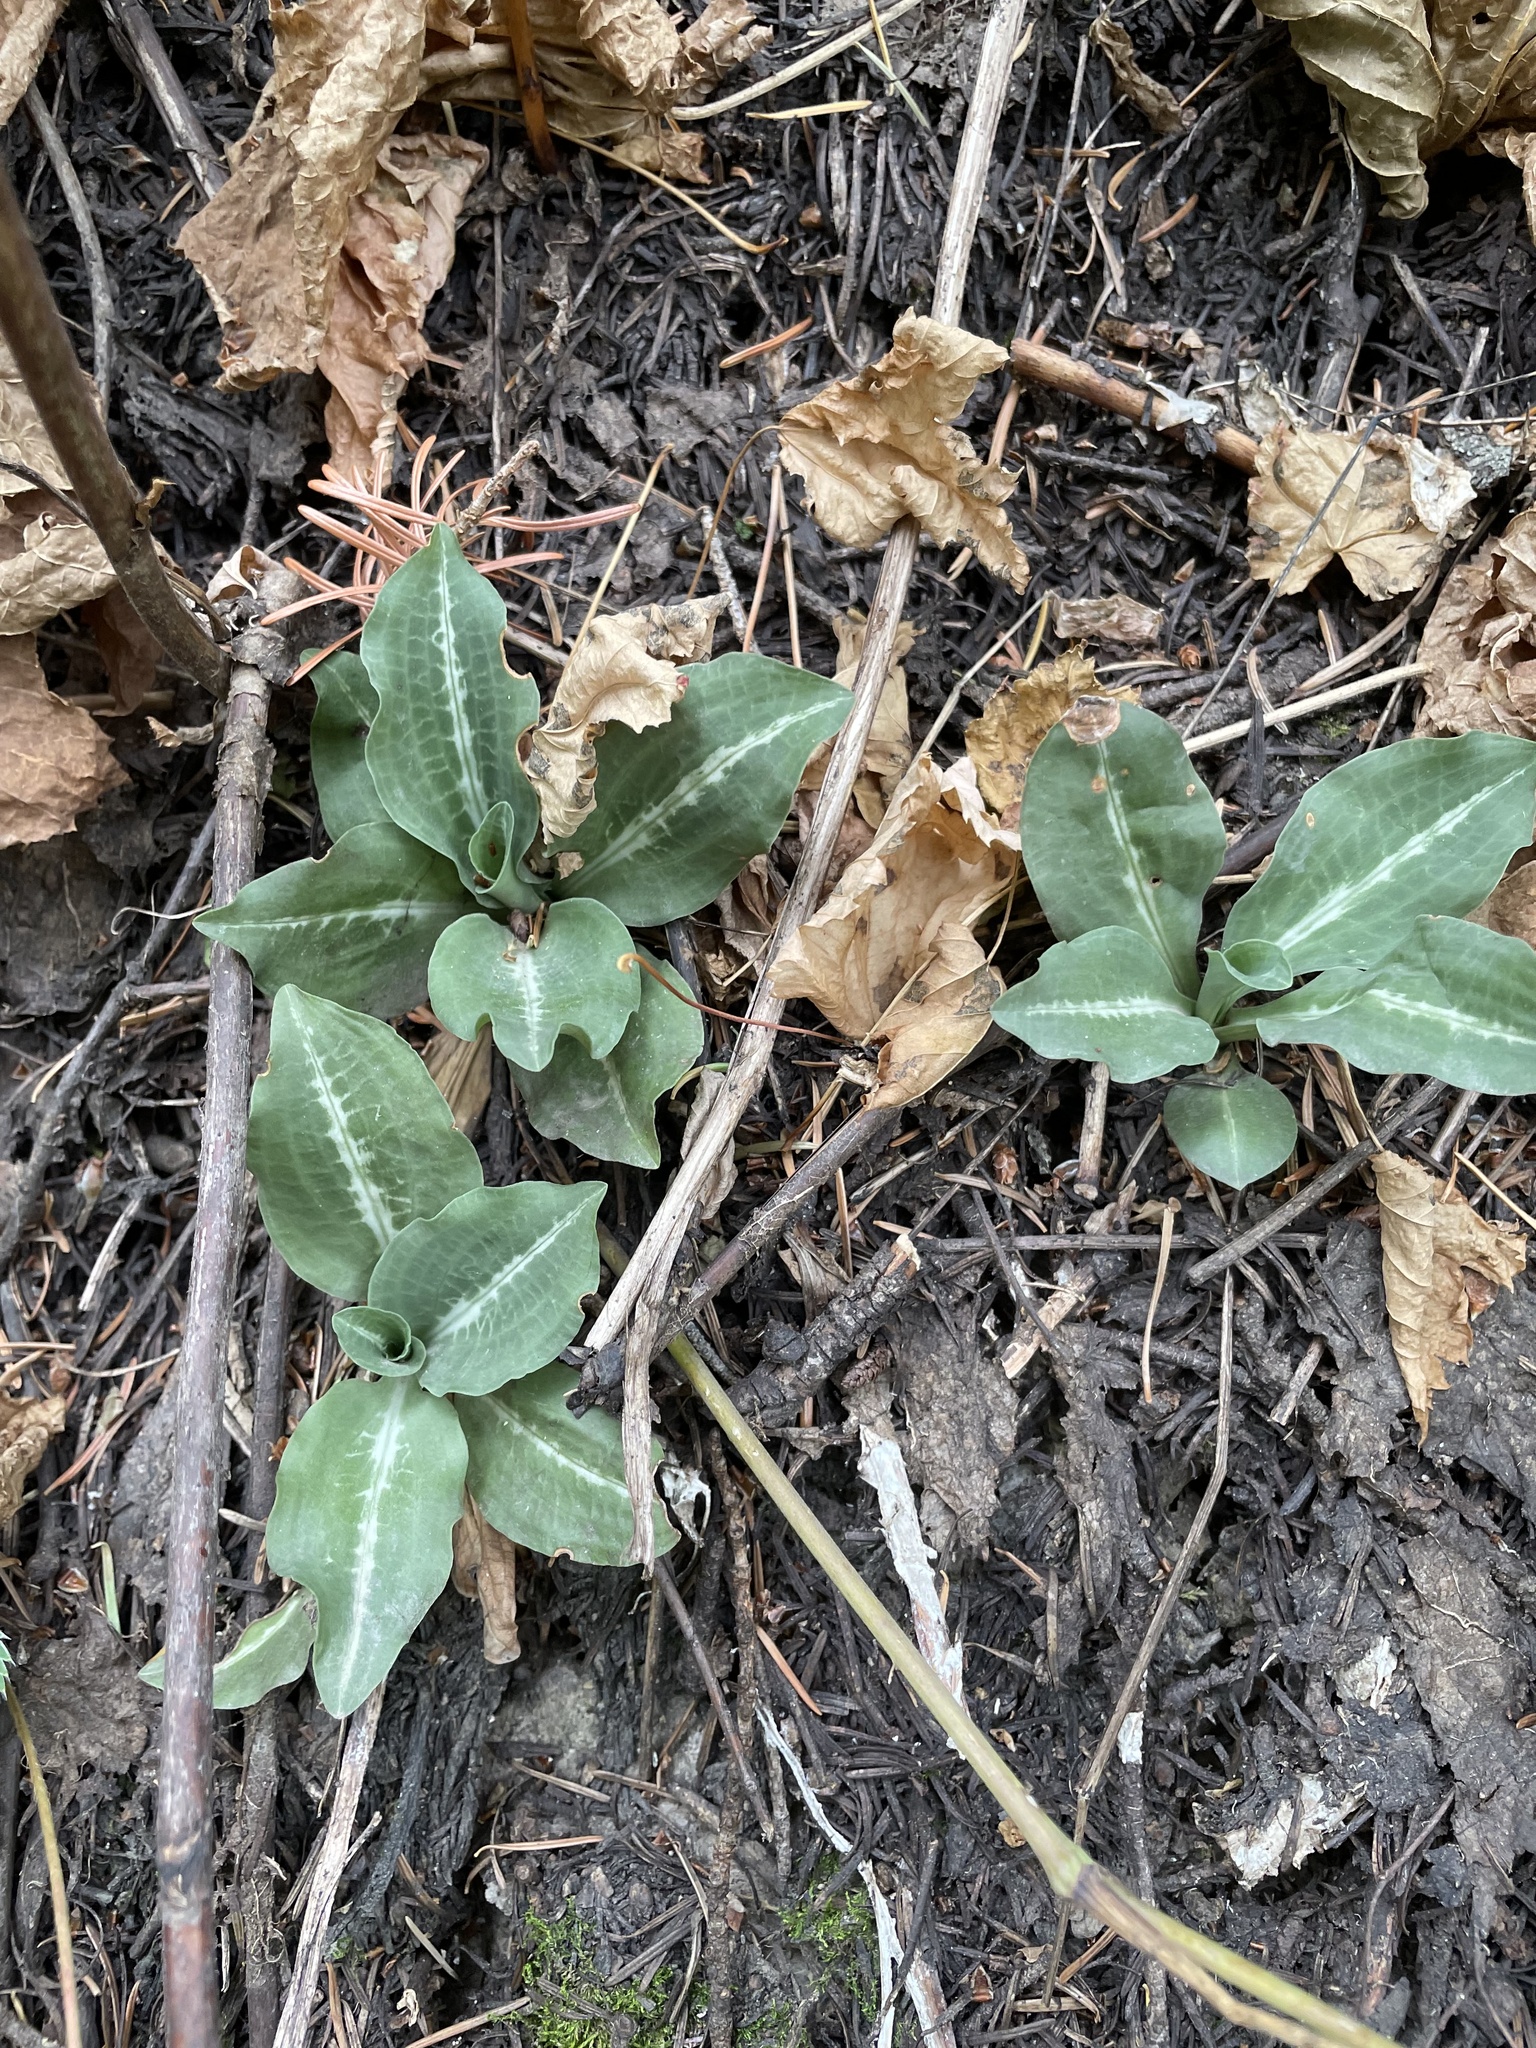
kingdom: Plantae
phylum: Tracheophyta
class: Liliopsida
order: Asparagales
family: Orchidaceae
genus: Goodyera
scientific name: Goodyera oblongifolia
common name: Giant rattlesnake-plantain
